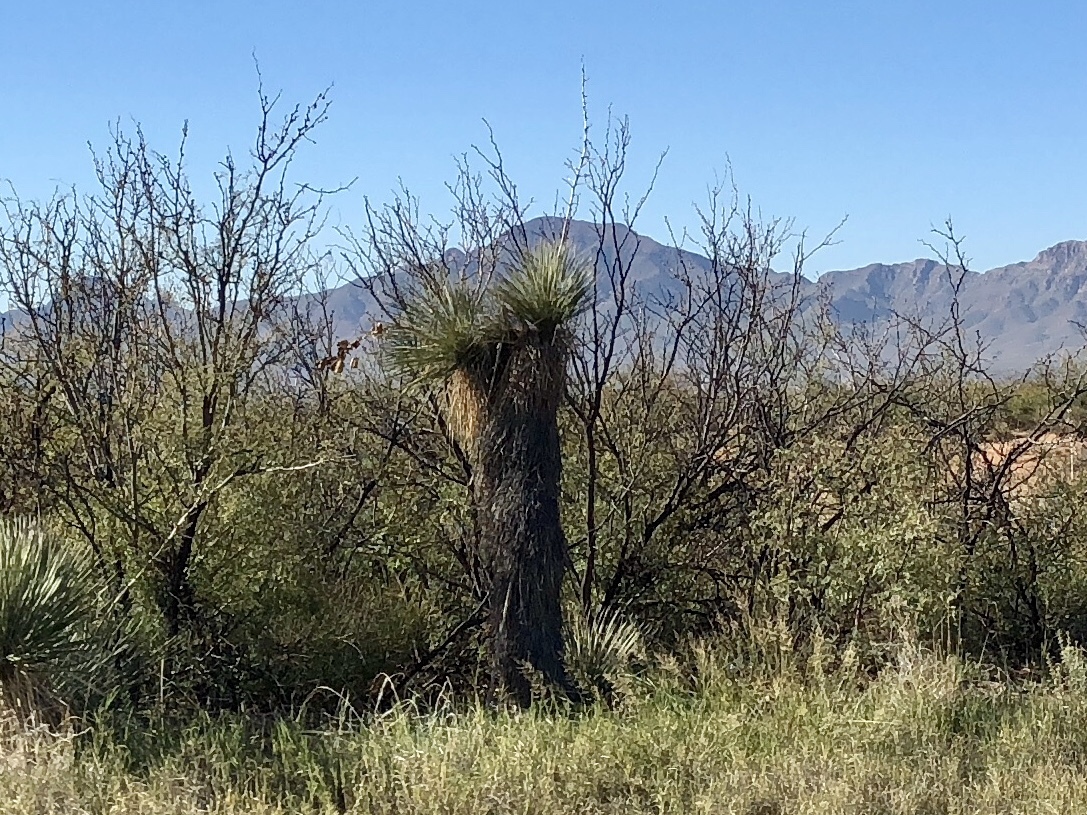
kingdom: Plantae
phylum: Tracheophyta
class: Liliopsida
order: Asparagales
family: Asparagaceae
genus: Yucca
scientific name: Yucca elata
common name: Palmella
